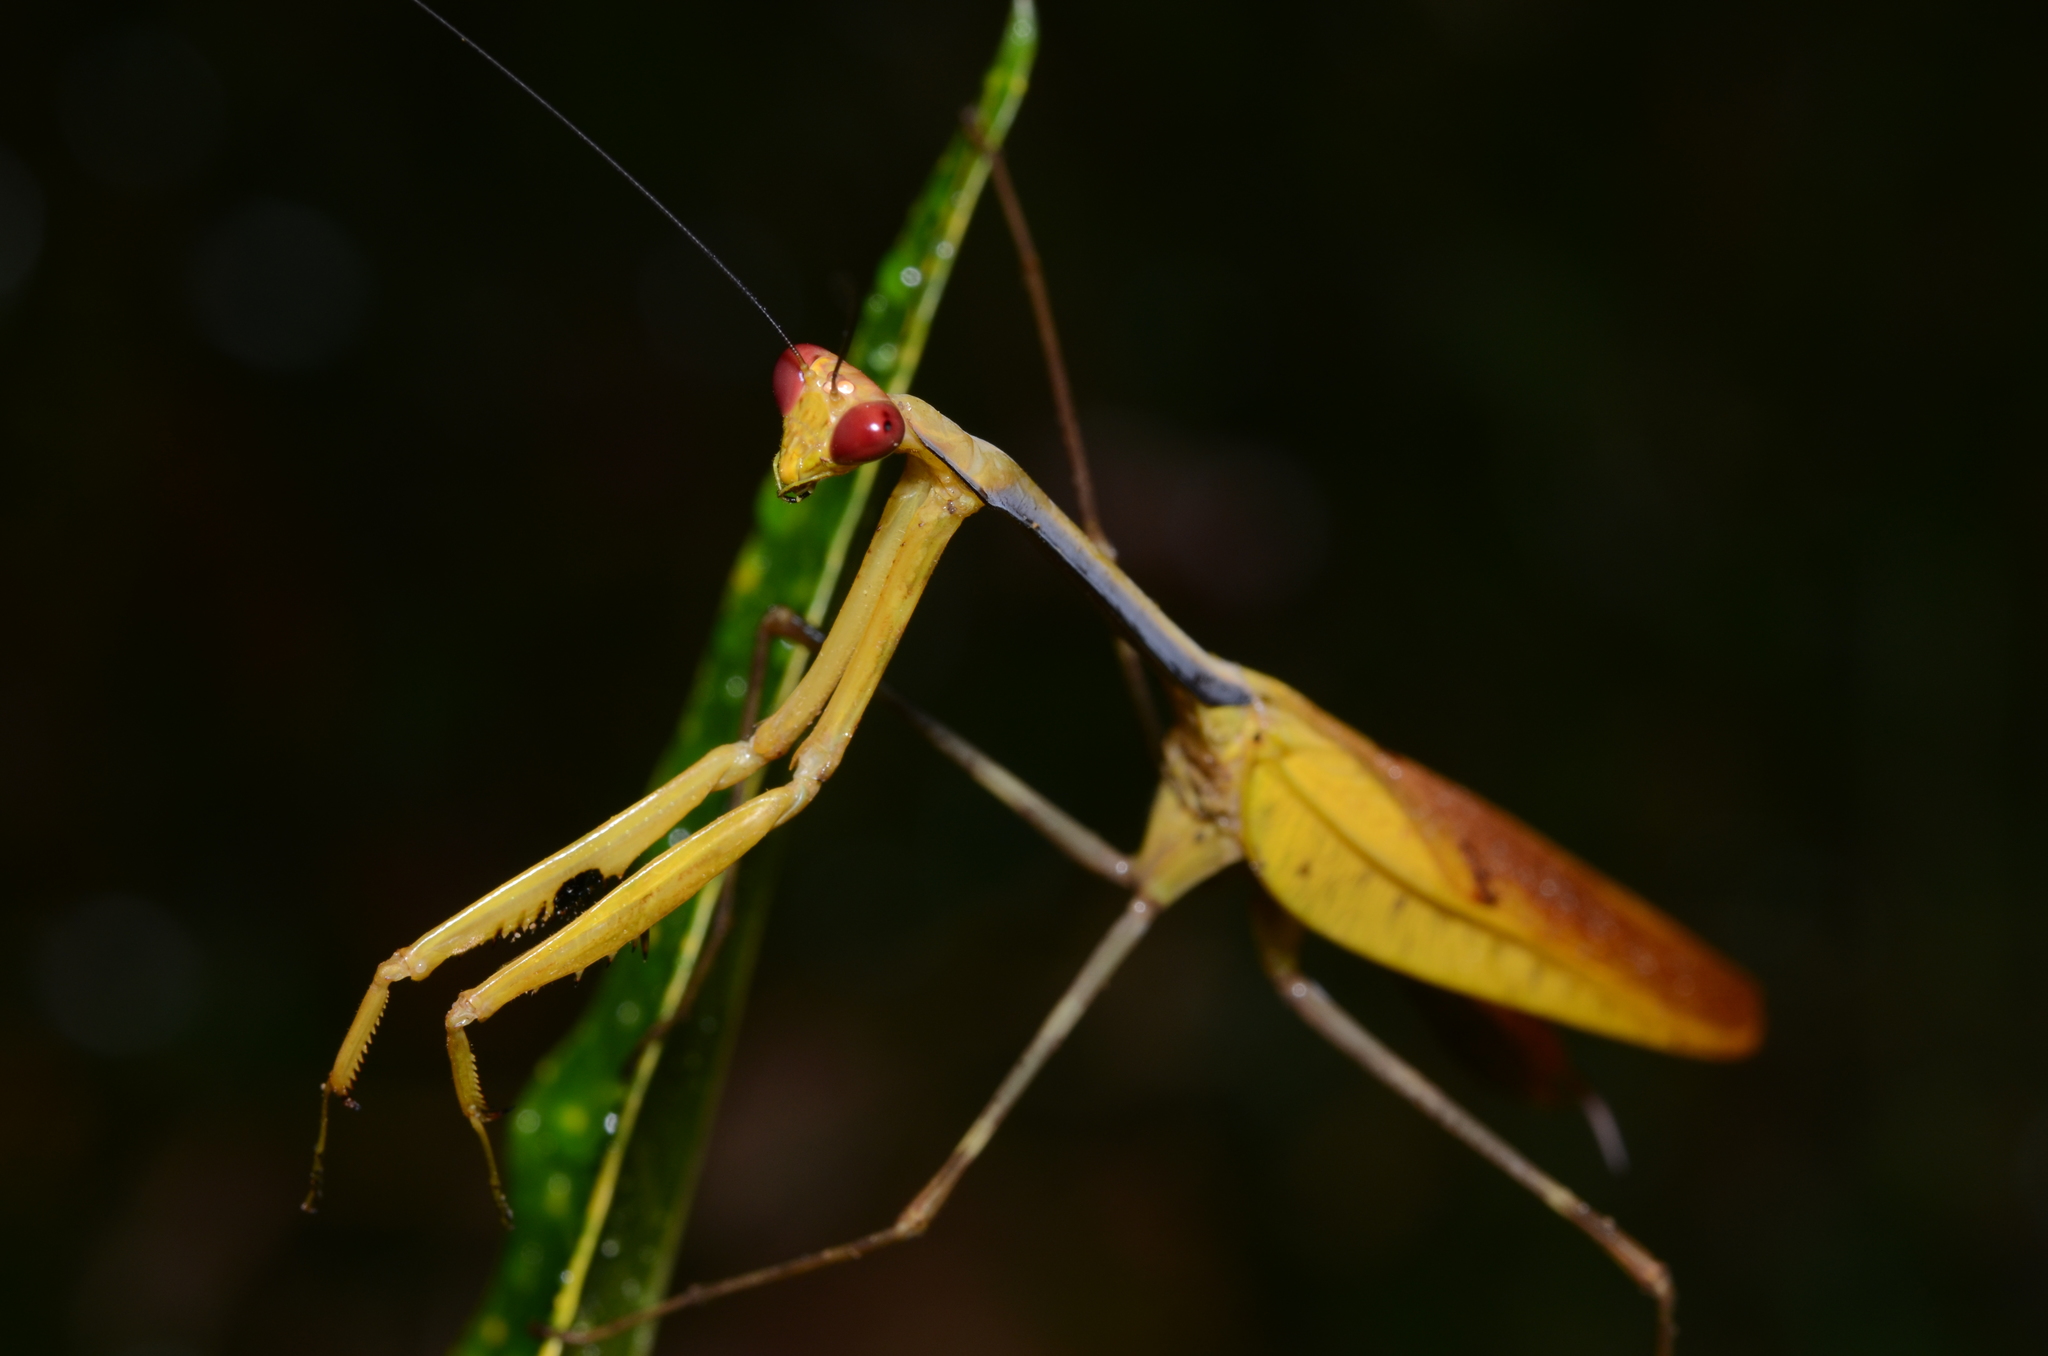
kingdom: Animalia
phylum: Arthropoda
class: Insecta
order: Mantodea
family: Mantidae
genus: Tisma
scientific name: Tisma freyi
